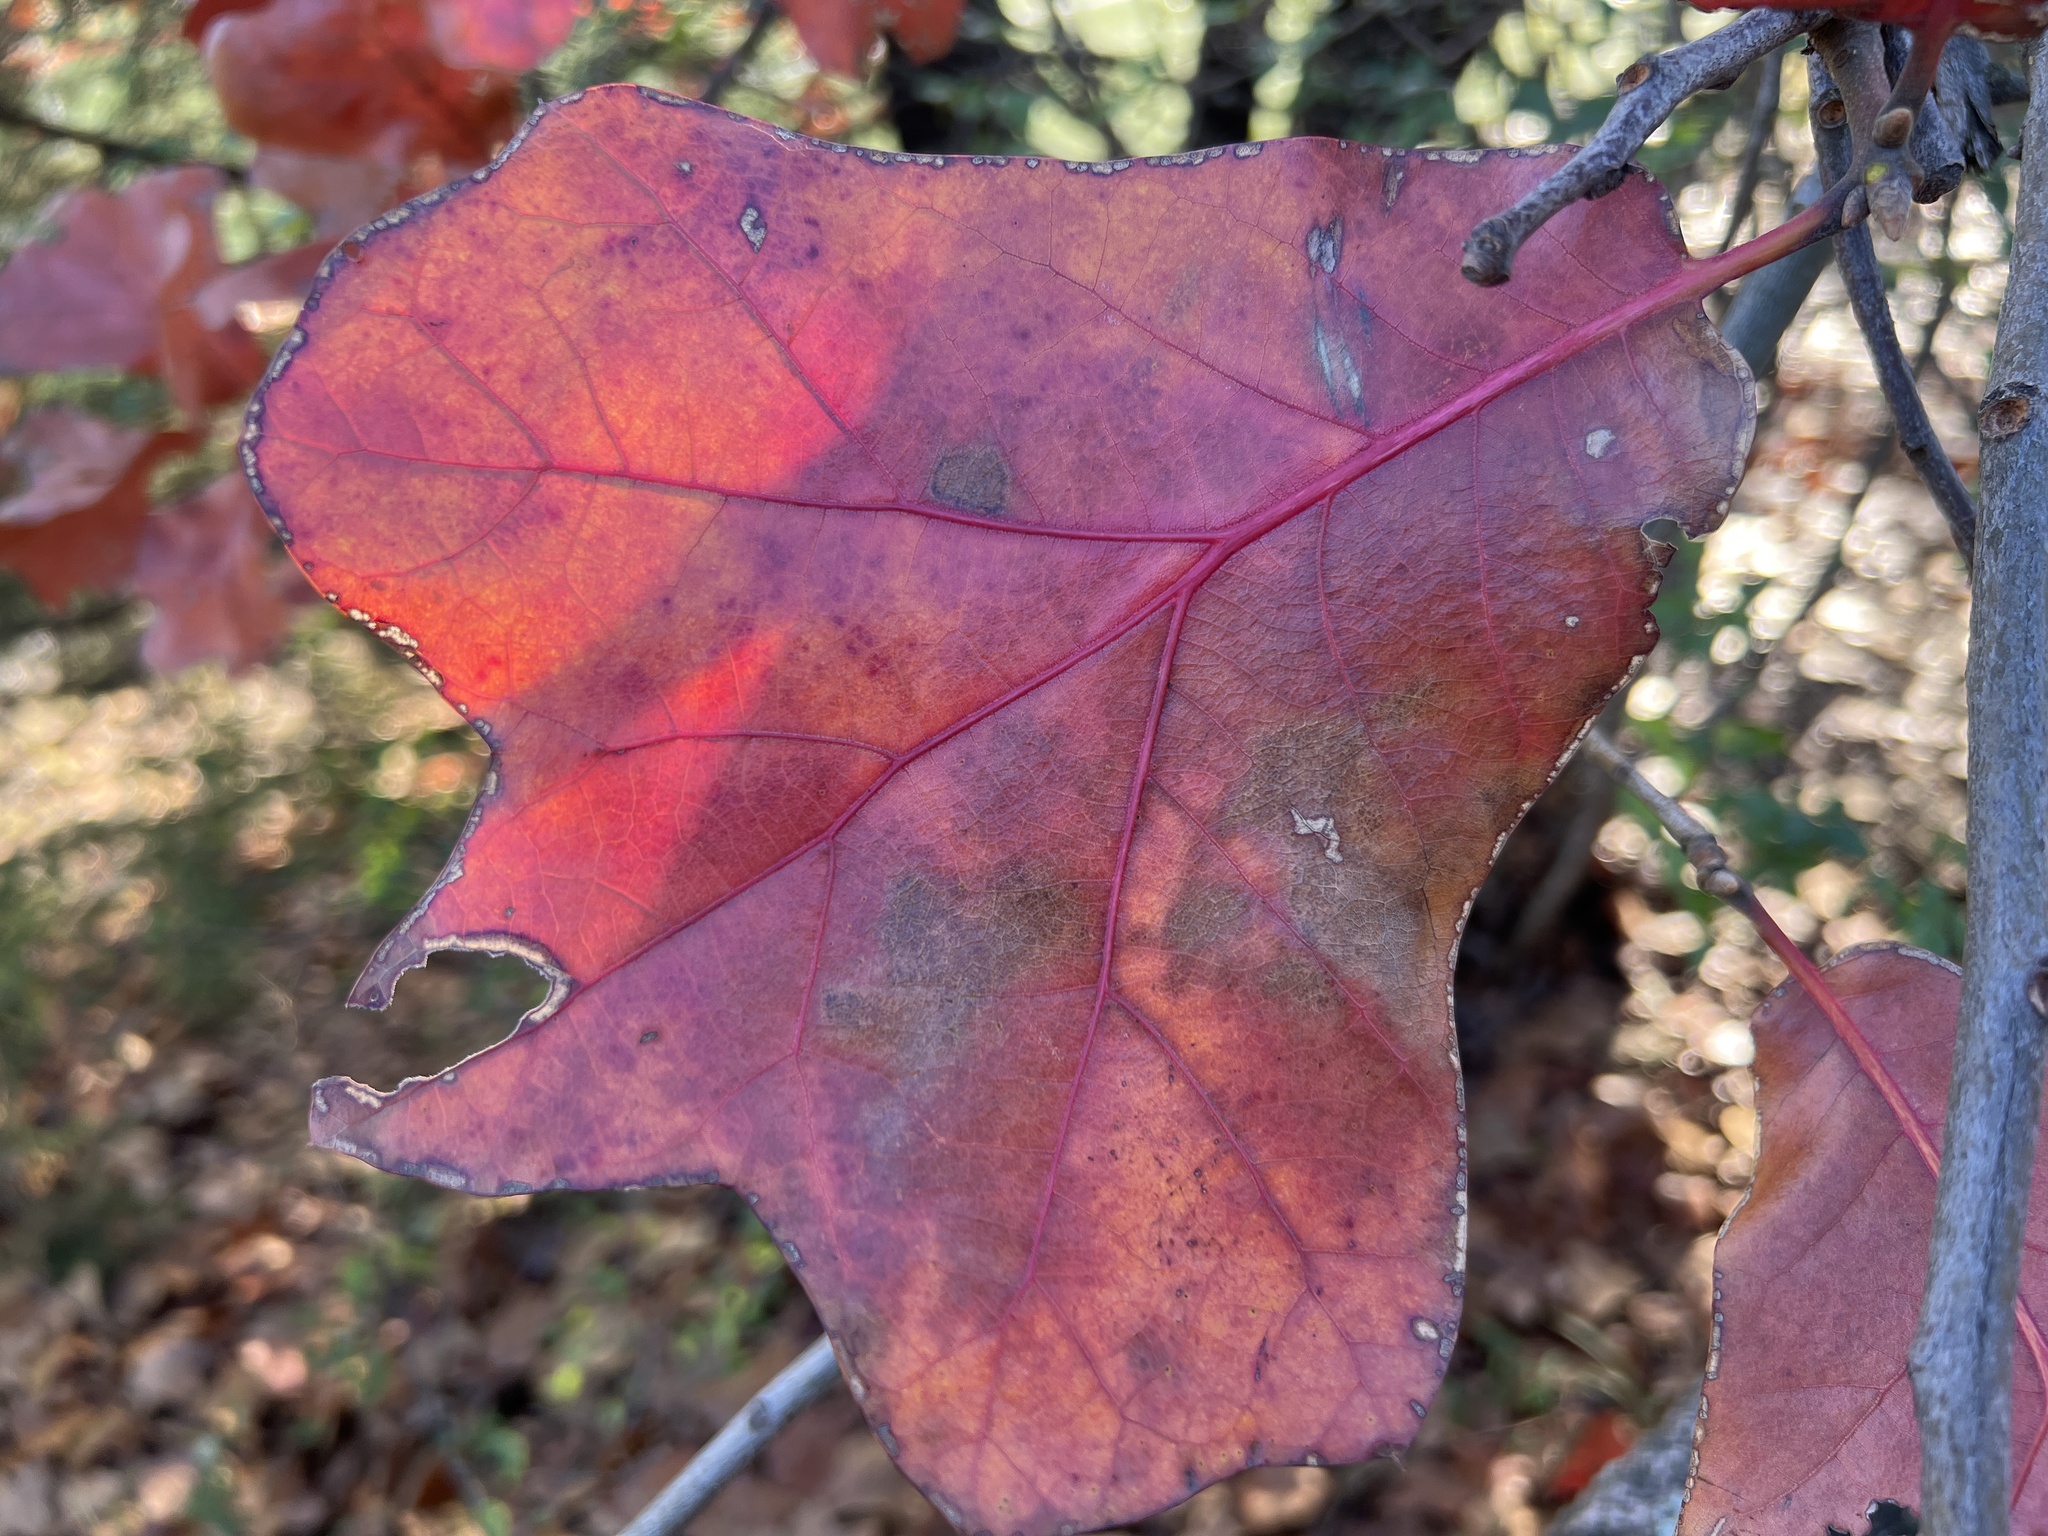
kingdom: Plantae
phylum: Tracheophyta
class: Magnoliopsida
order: Fagales
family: Fagaceae
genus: Quercus
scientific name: Quercus marilandica
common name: Blackjack oak
